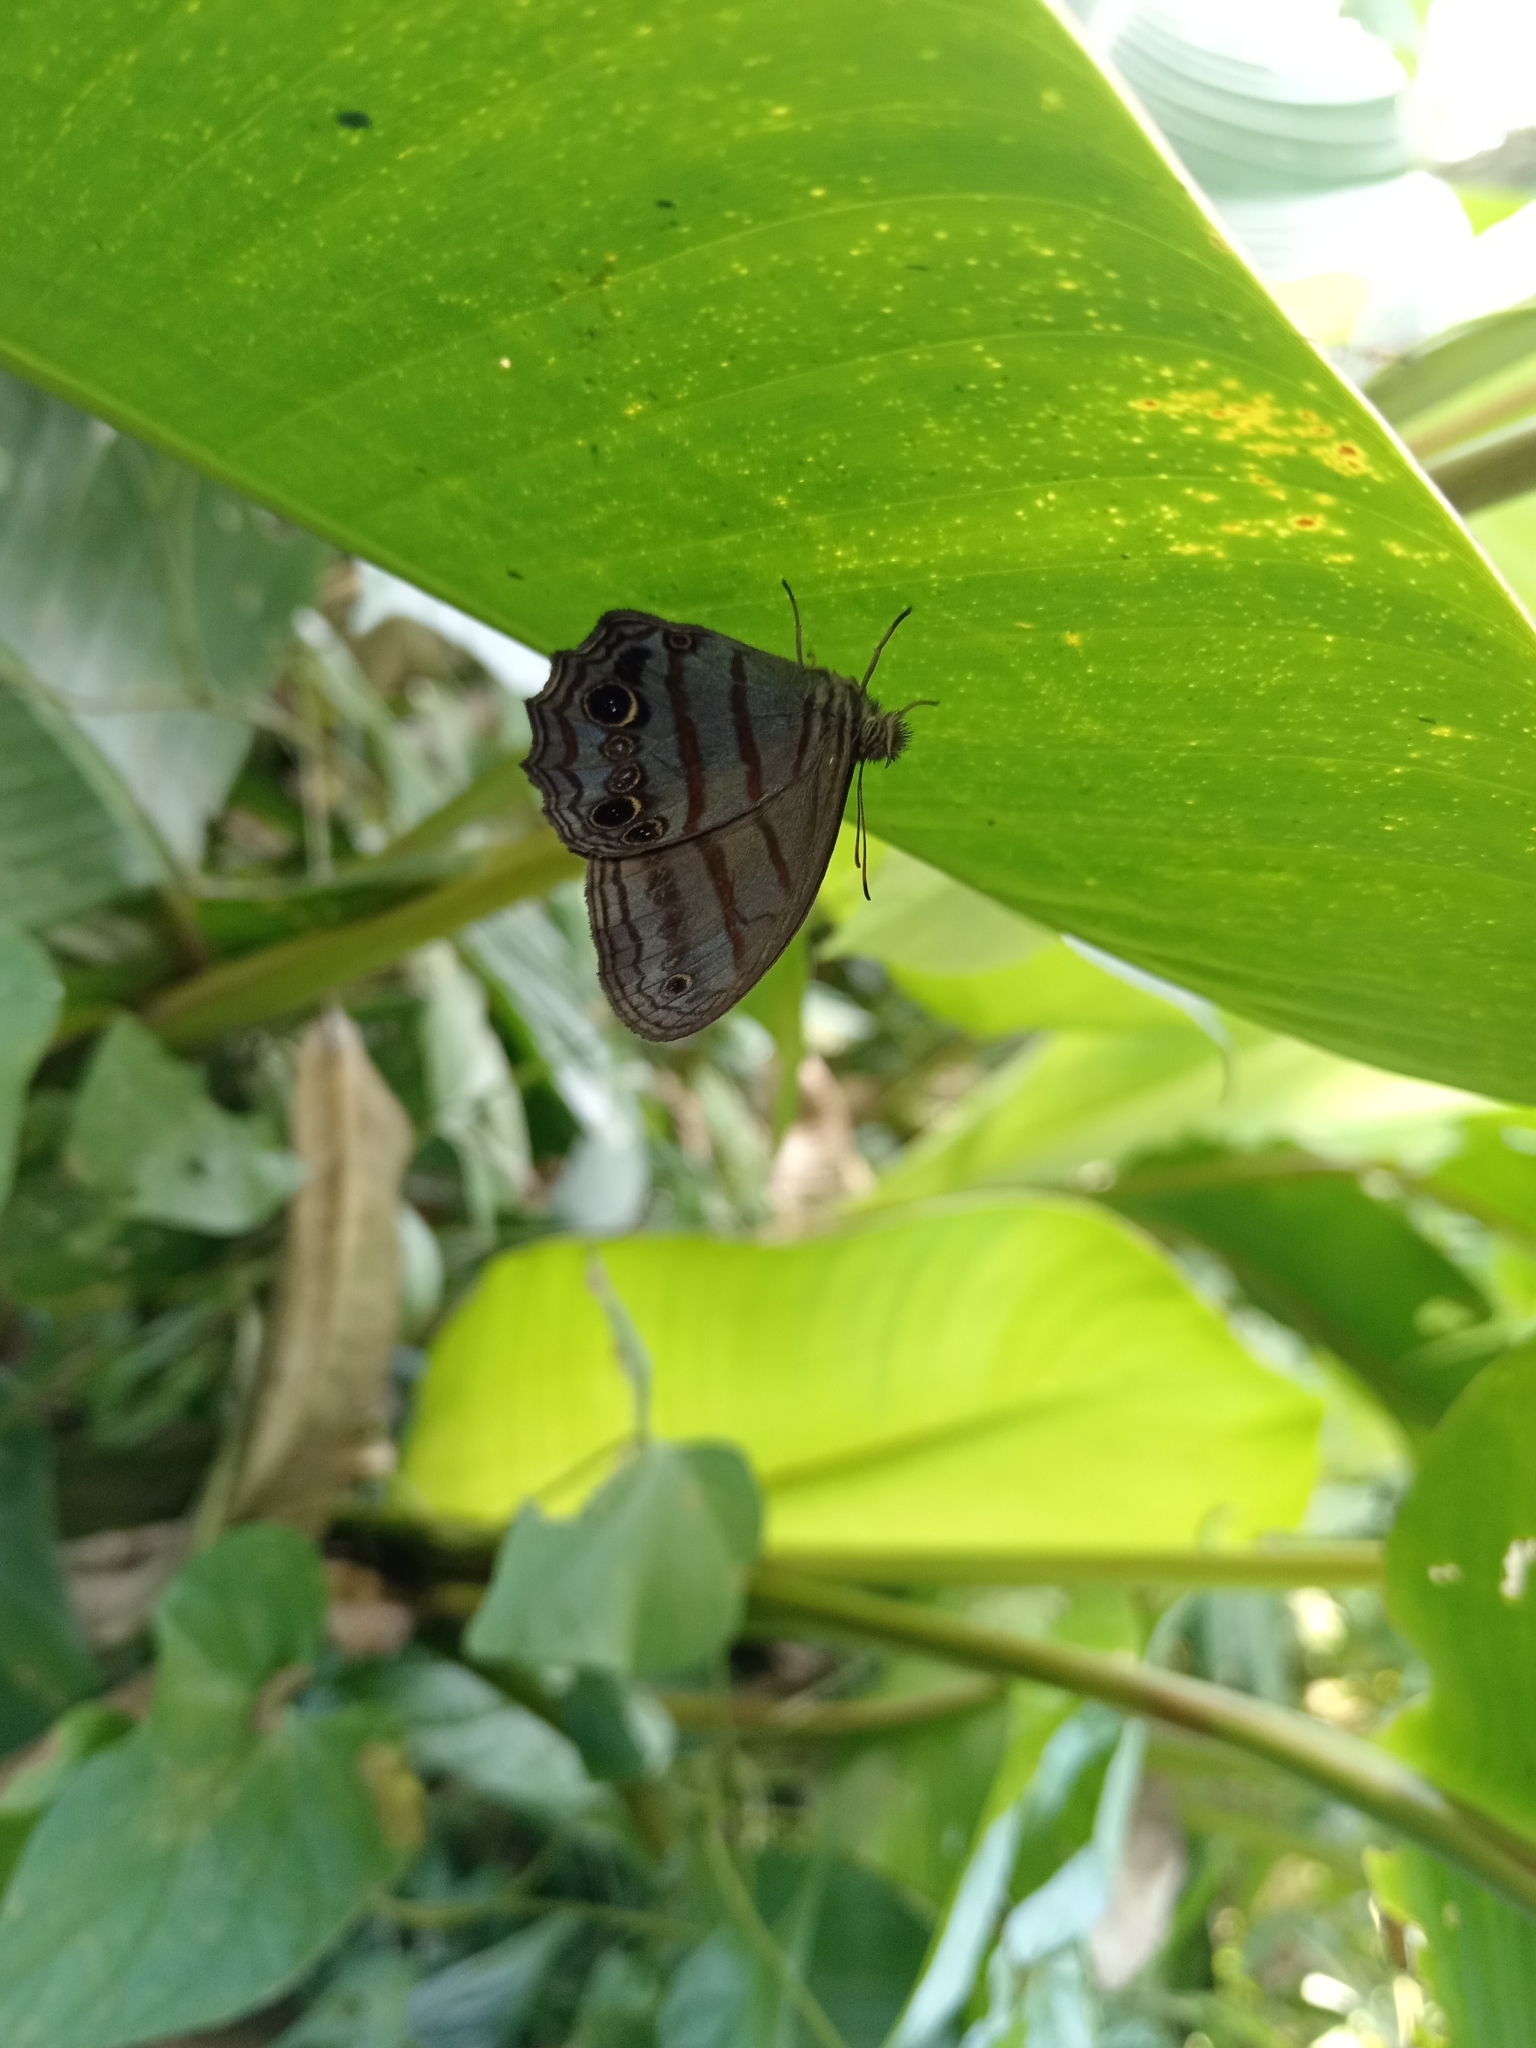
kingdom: Animalia
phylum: Arthropoda
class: Insecta
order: Lepidoptera
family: Nymphalidae
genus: Magneuptychia
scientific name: Magneuptychia libye
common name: Blue-gray satyr
